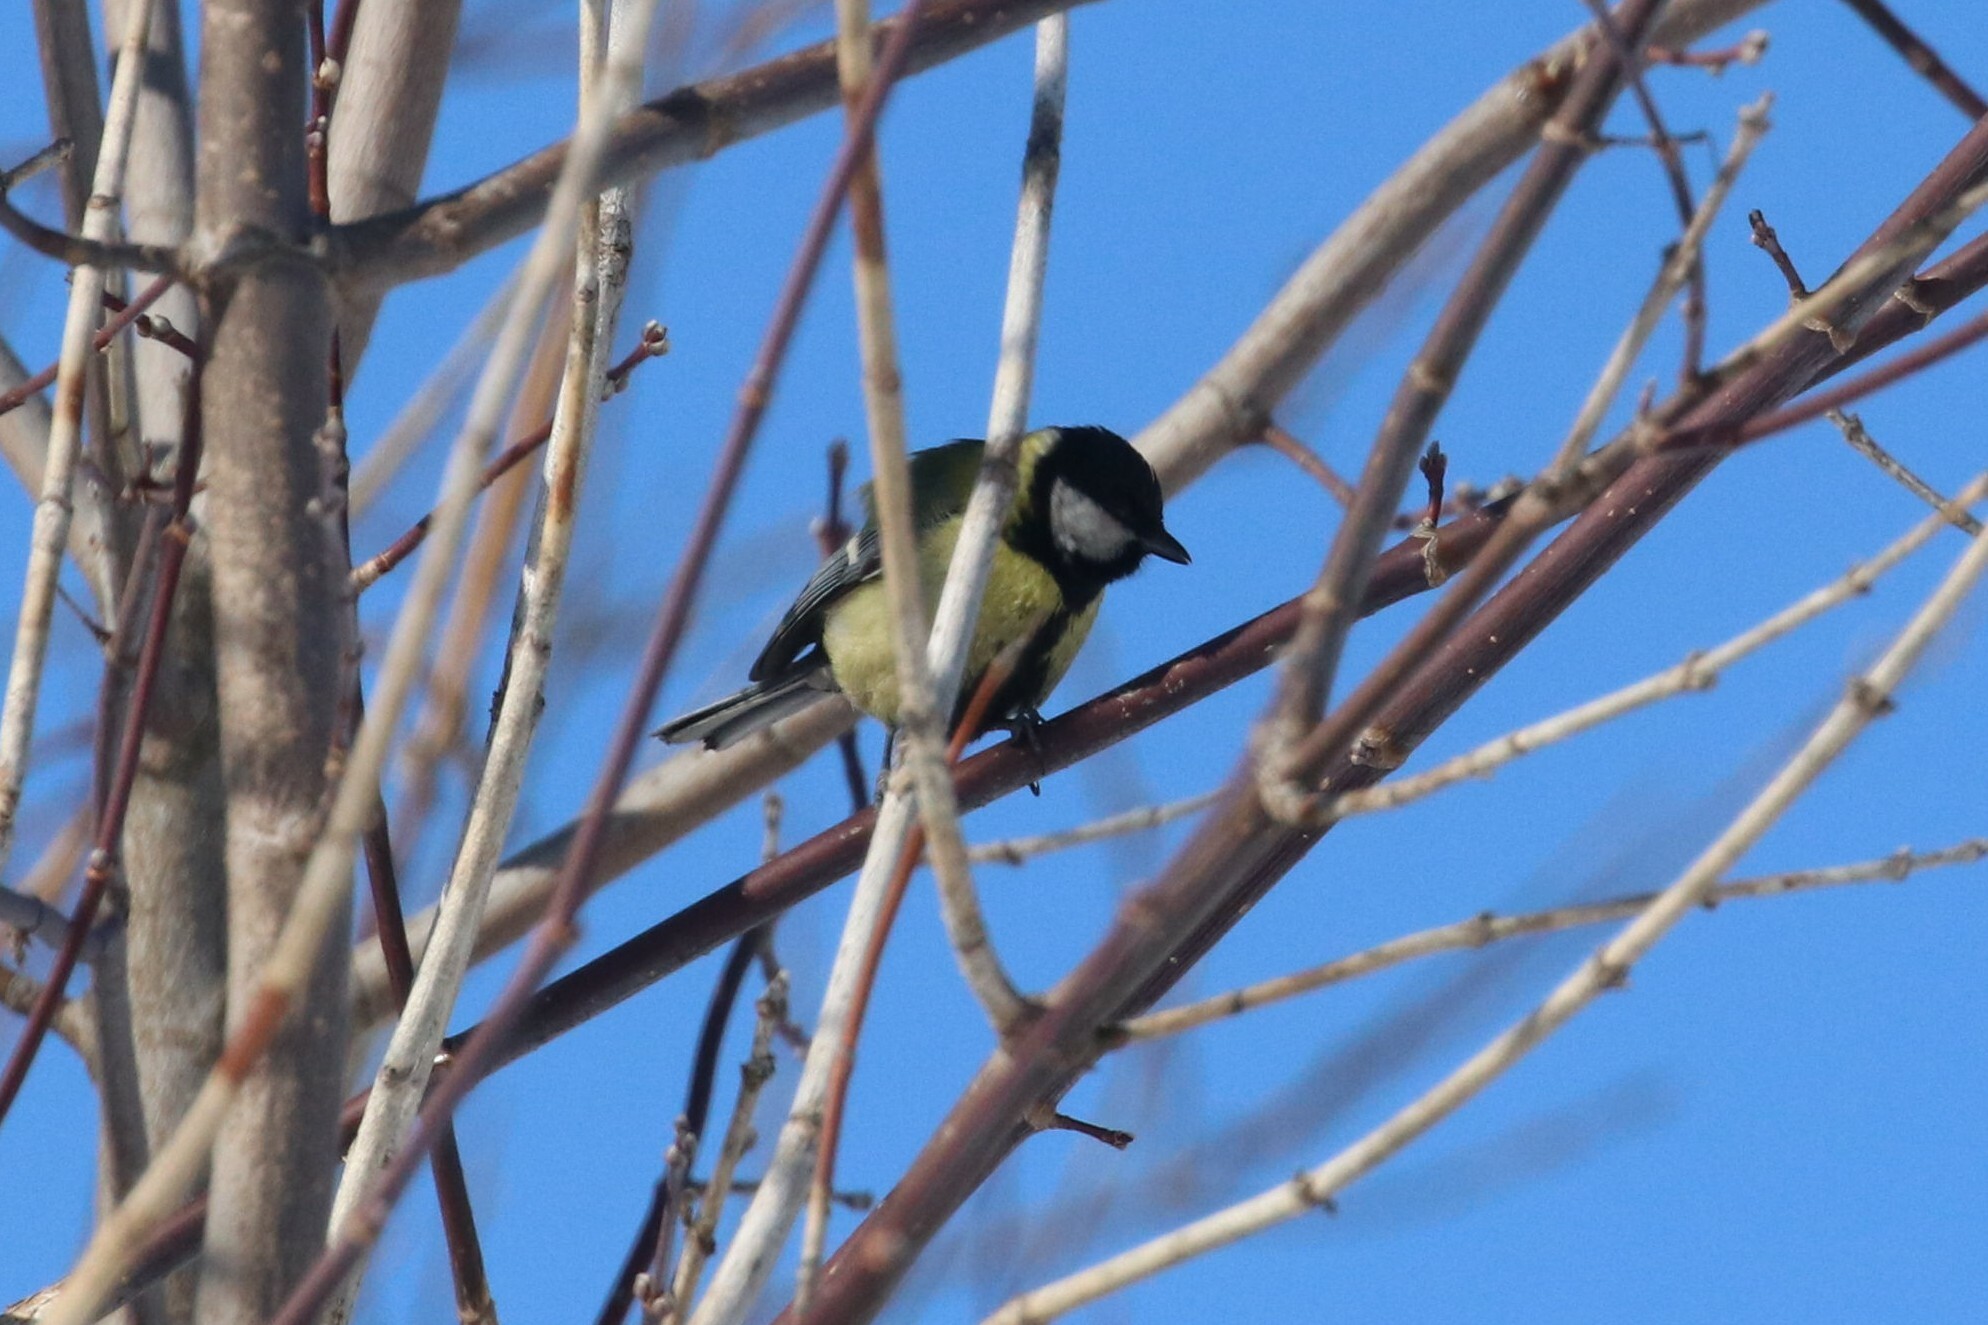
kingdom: Animalia
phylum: Chordata
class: Aves
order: Passeriformes
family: Paridae
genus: Parus
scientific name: Parus major
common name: Great tit
